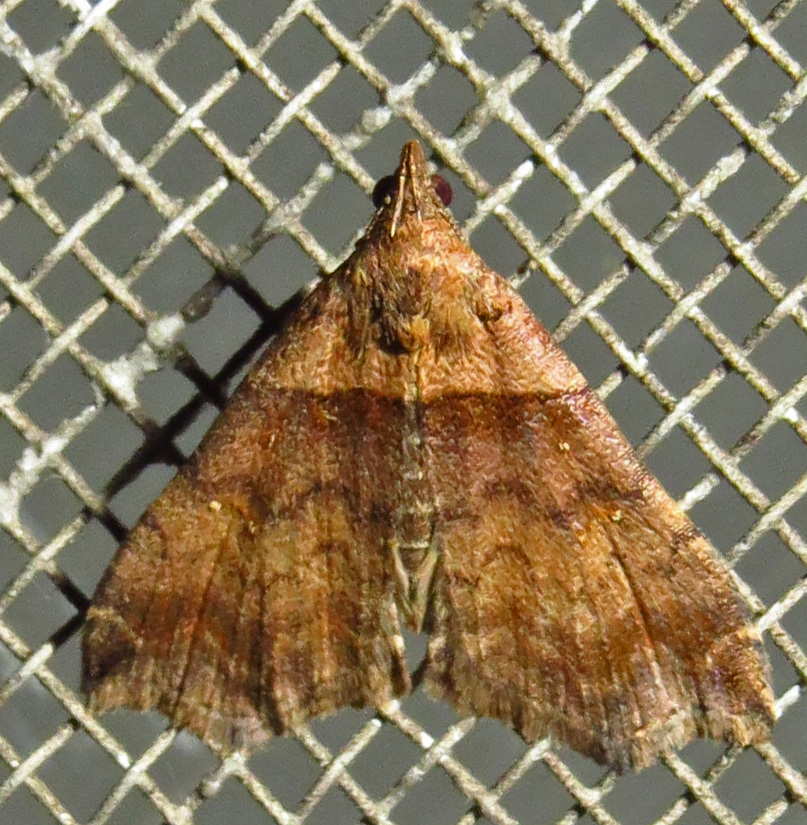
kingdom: Animalia
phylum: Arthropoda
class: Insecta
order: Lepidoptera
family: Erebidae
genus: Lascoria
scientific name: Lascoria ambigualis
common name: Ambiguous moth
